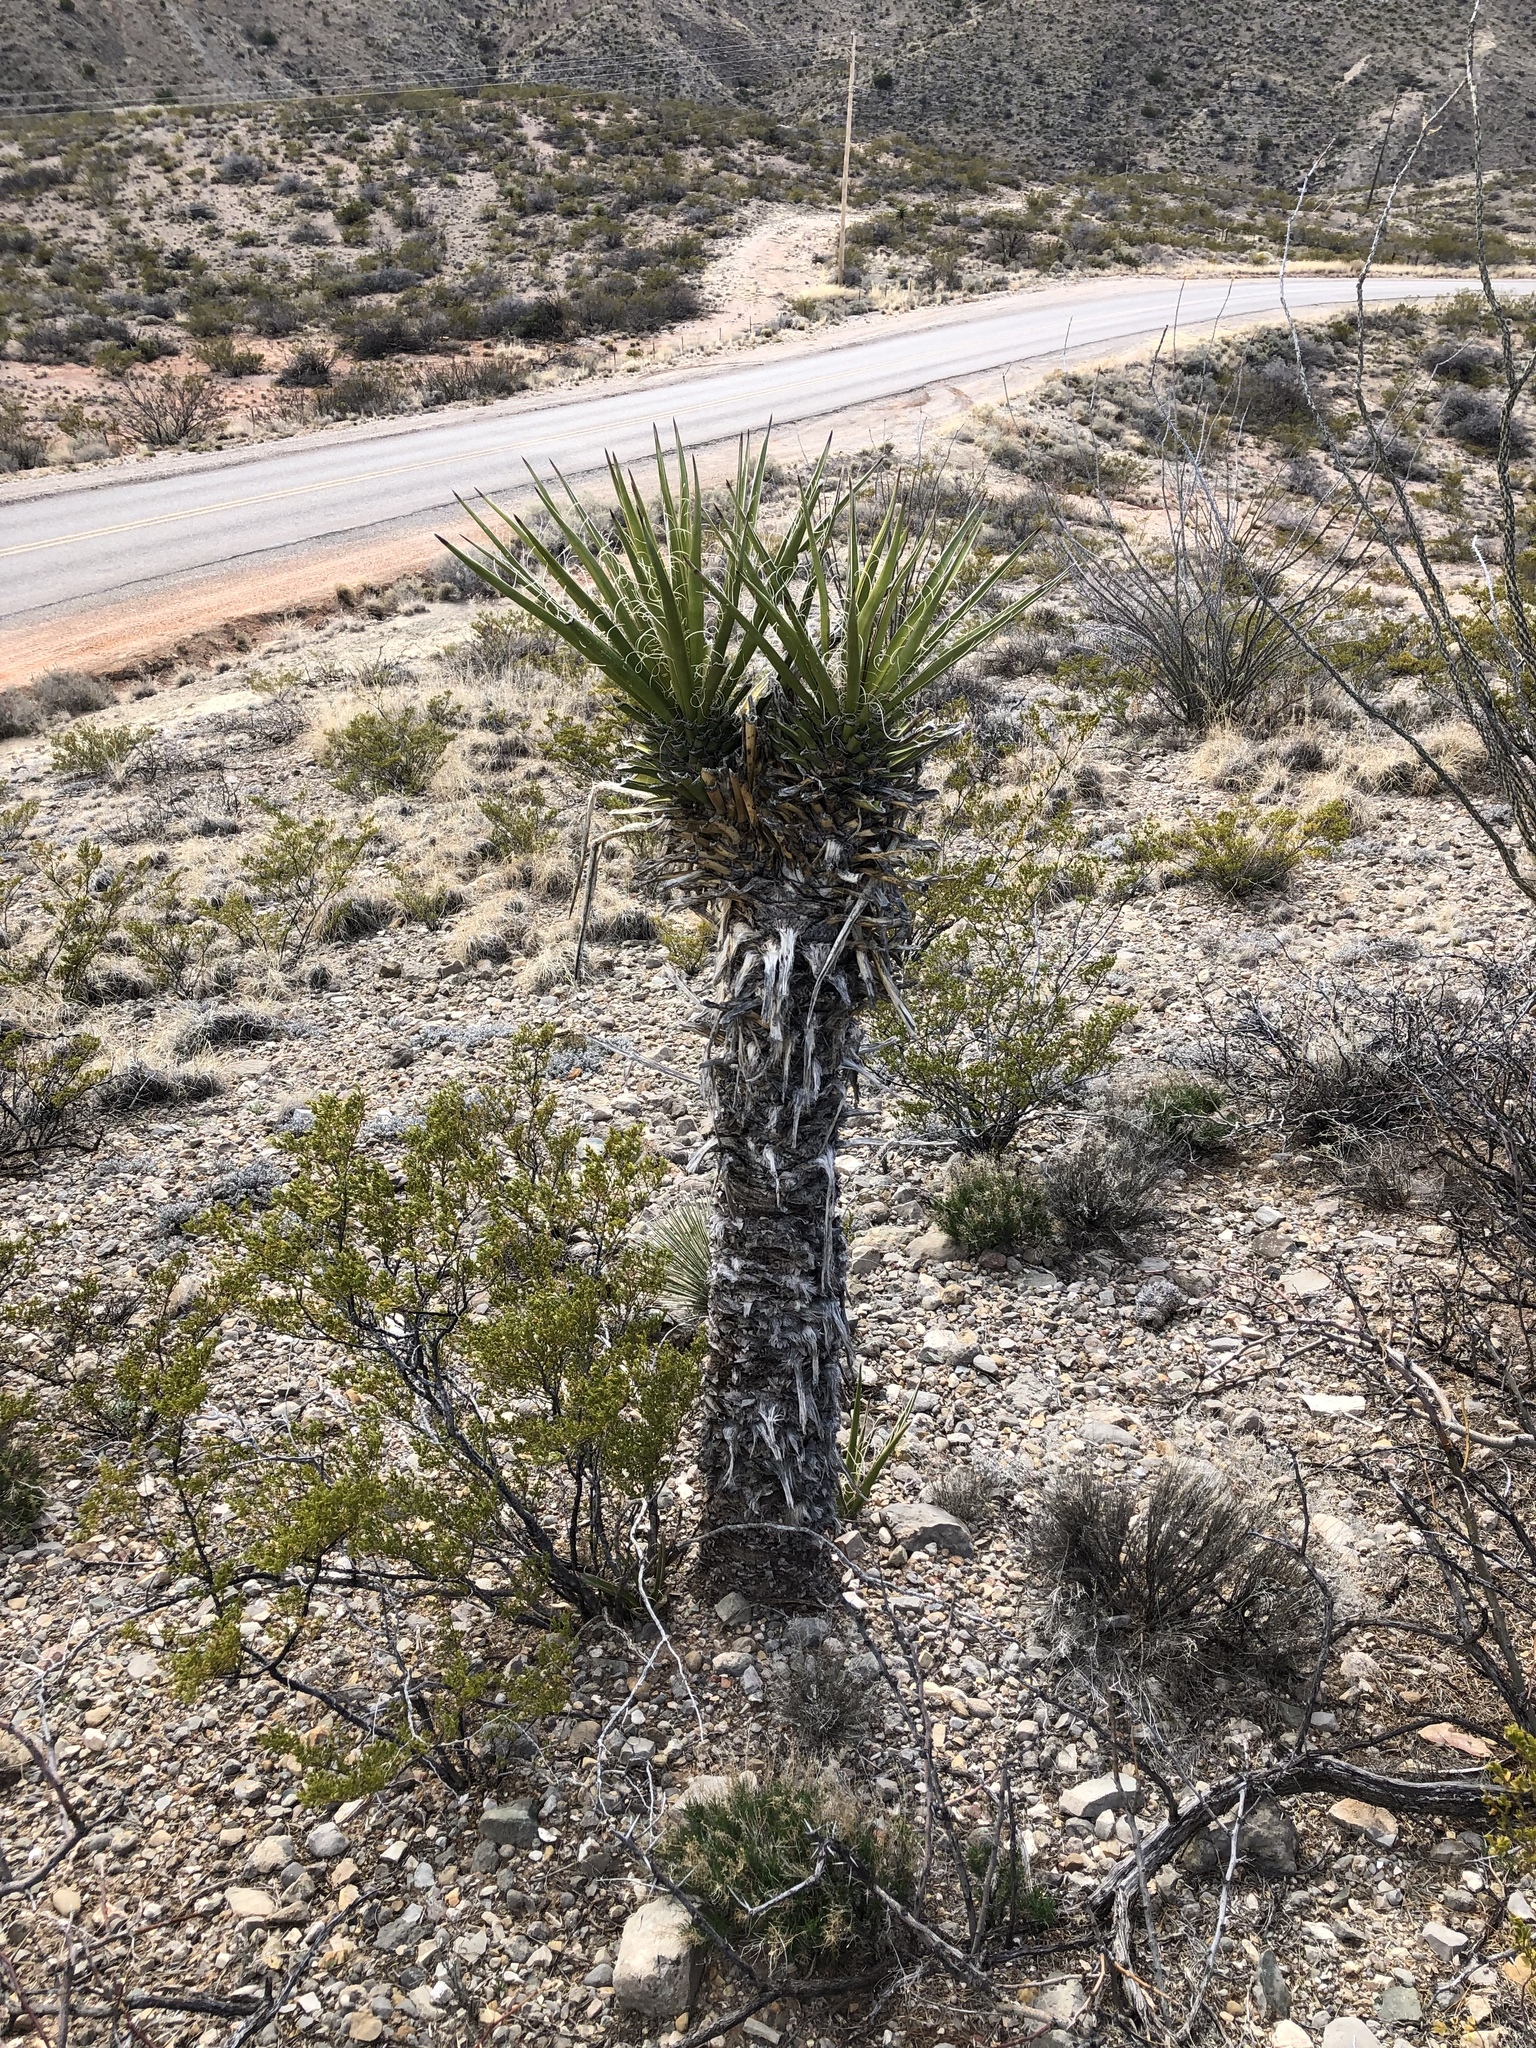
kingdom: Plantae
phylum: Tracheophyta
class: Liliopsida
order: Asparagales
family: Asparagaceae
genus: Yucca
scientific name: Yucca treculiana
